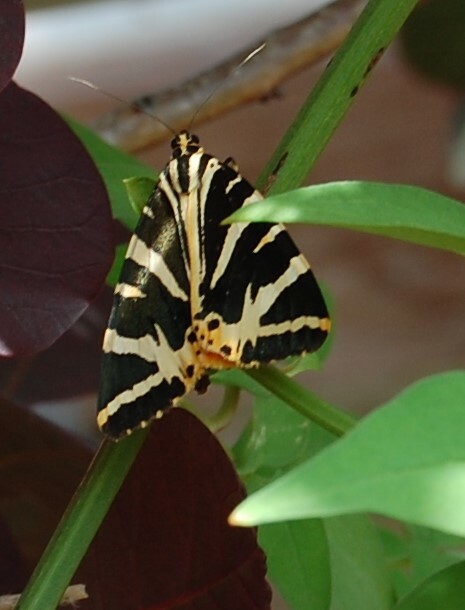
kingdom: Animalia
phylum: Arthropoda
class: Insecta
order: Lepidoptera
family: Erebidae
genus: Euplagia
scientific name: Euplagia quadripunctaria
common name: Jersey tiger
